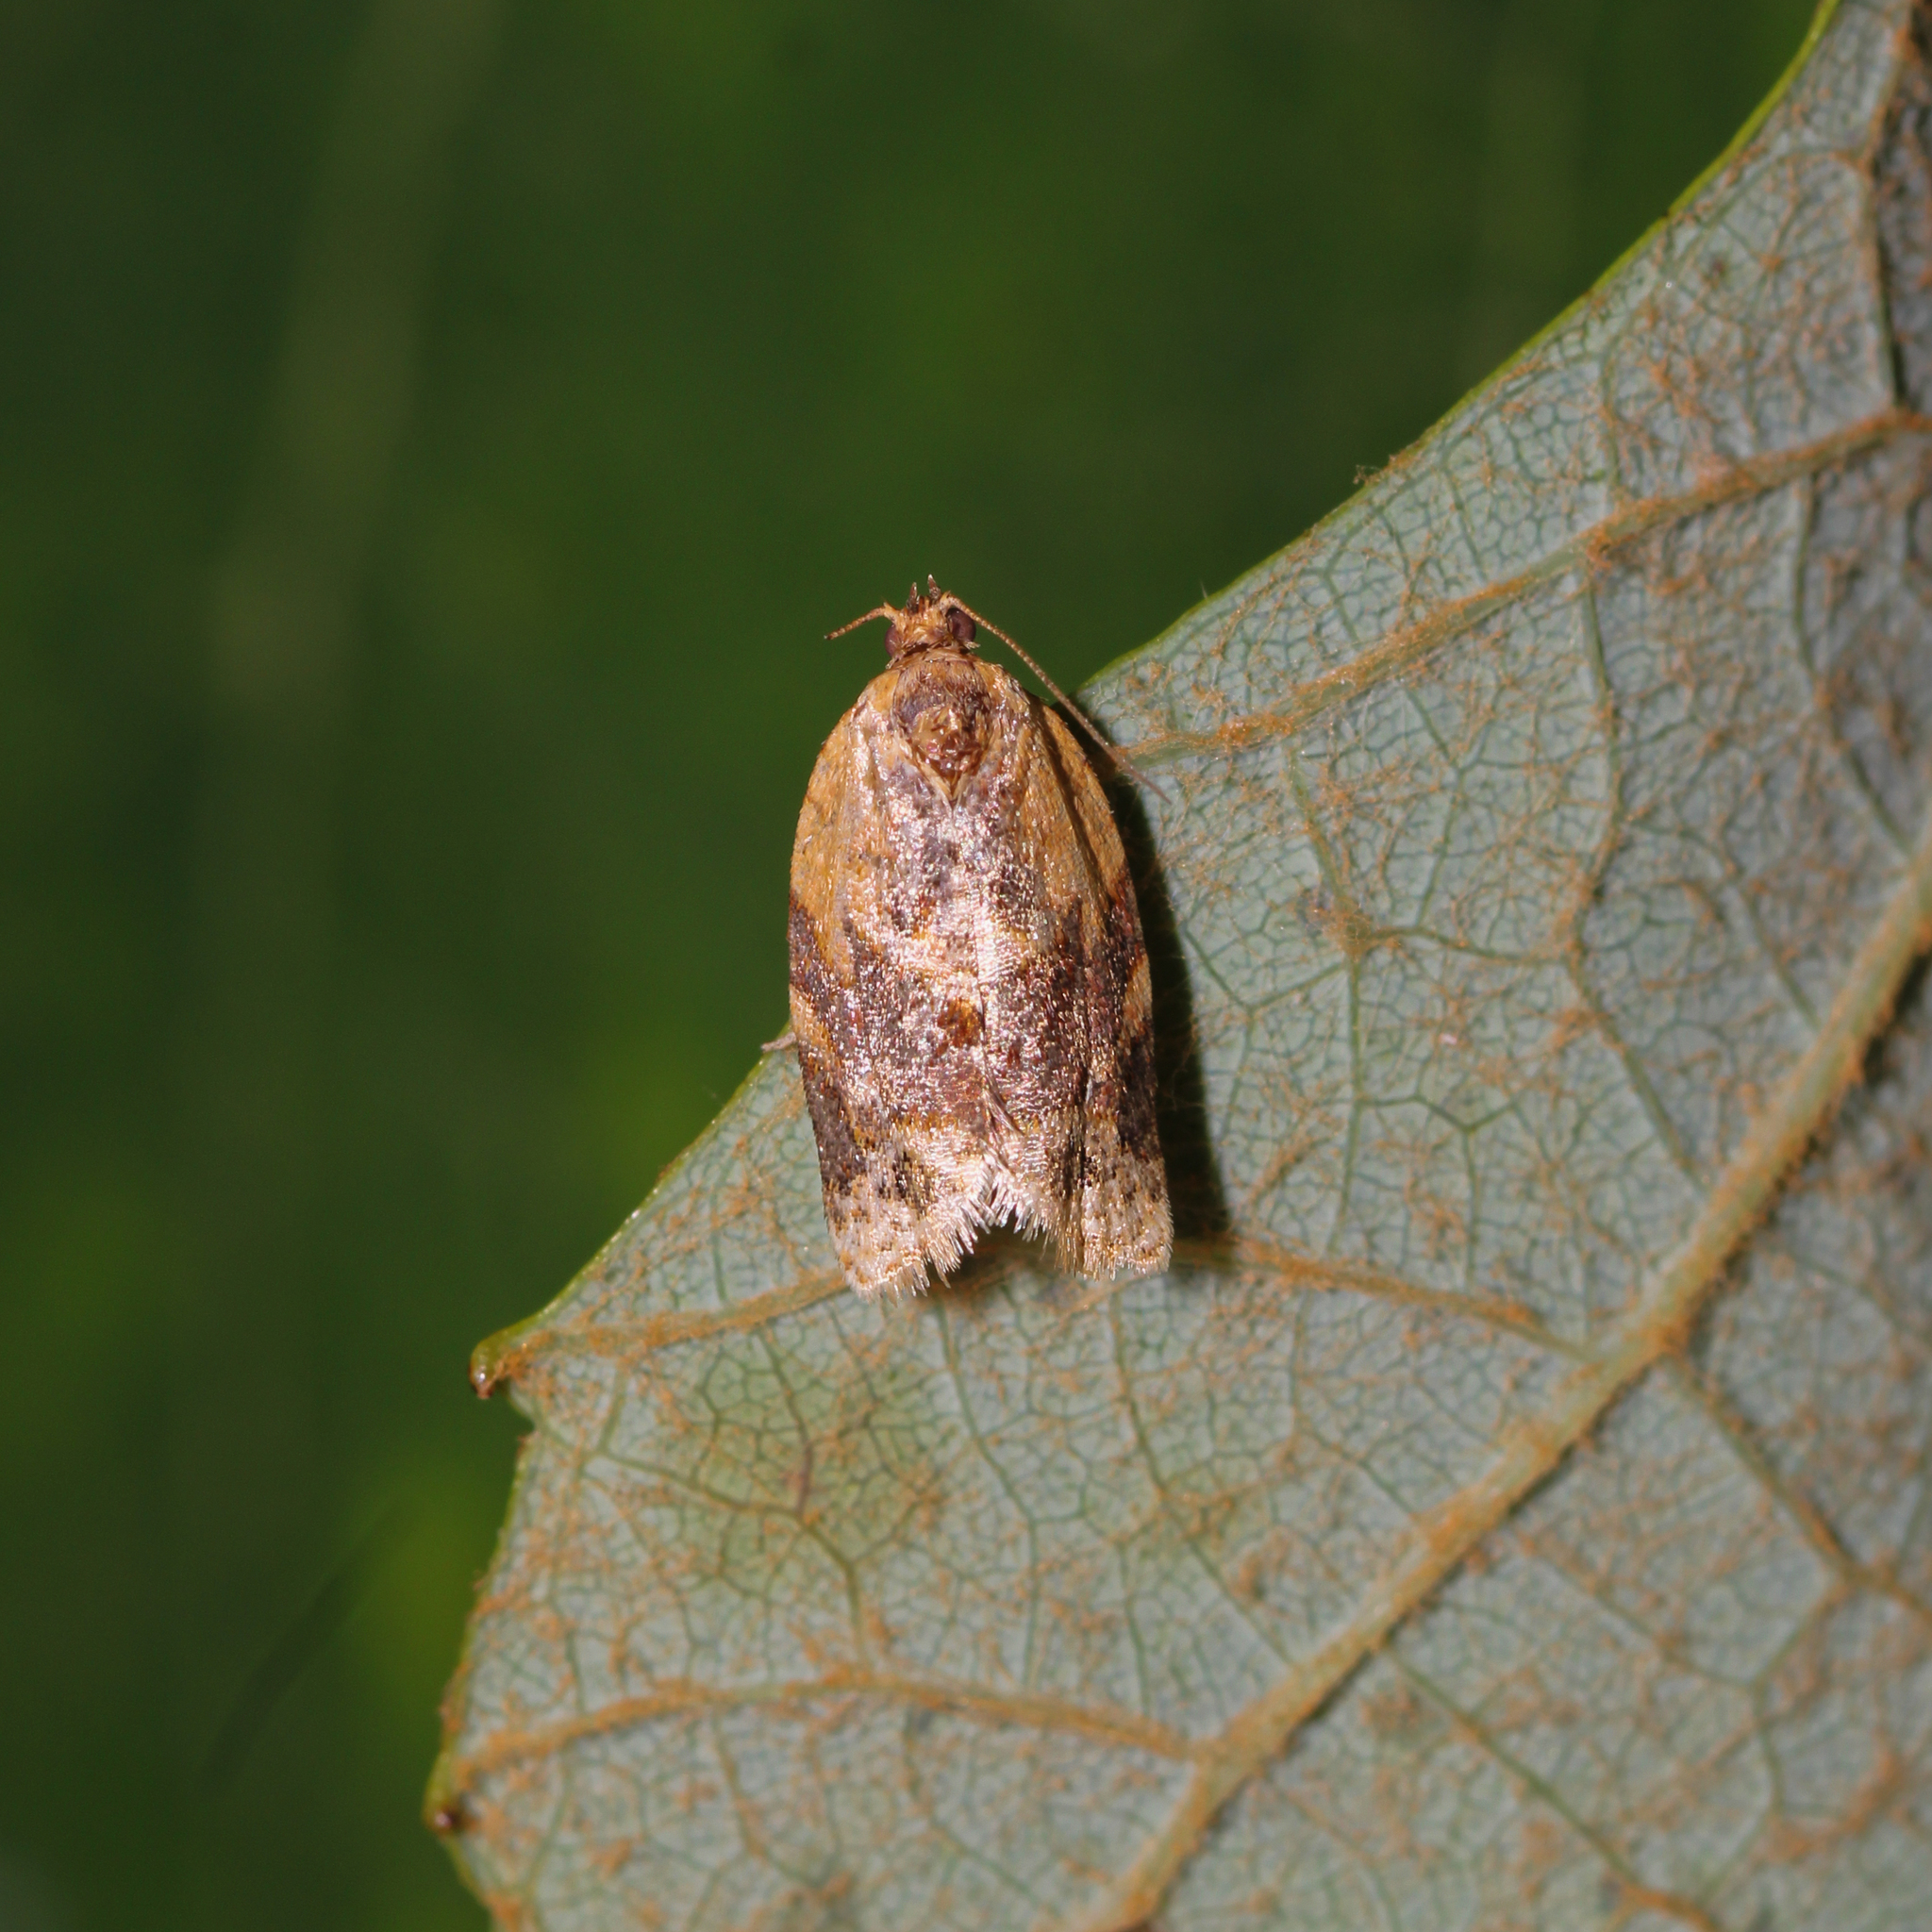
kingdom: Animalia
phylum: Arthropoda
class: Insecta
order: Lepidoptera
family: Tortricidae
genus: Argyrotaenia
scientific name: Argyrotaenia velutinana
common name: Red-banded leafroller moth
